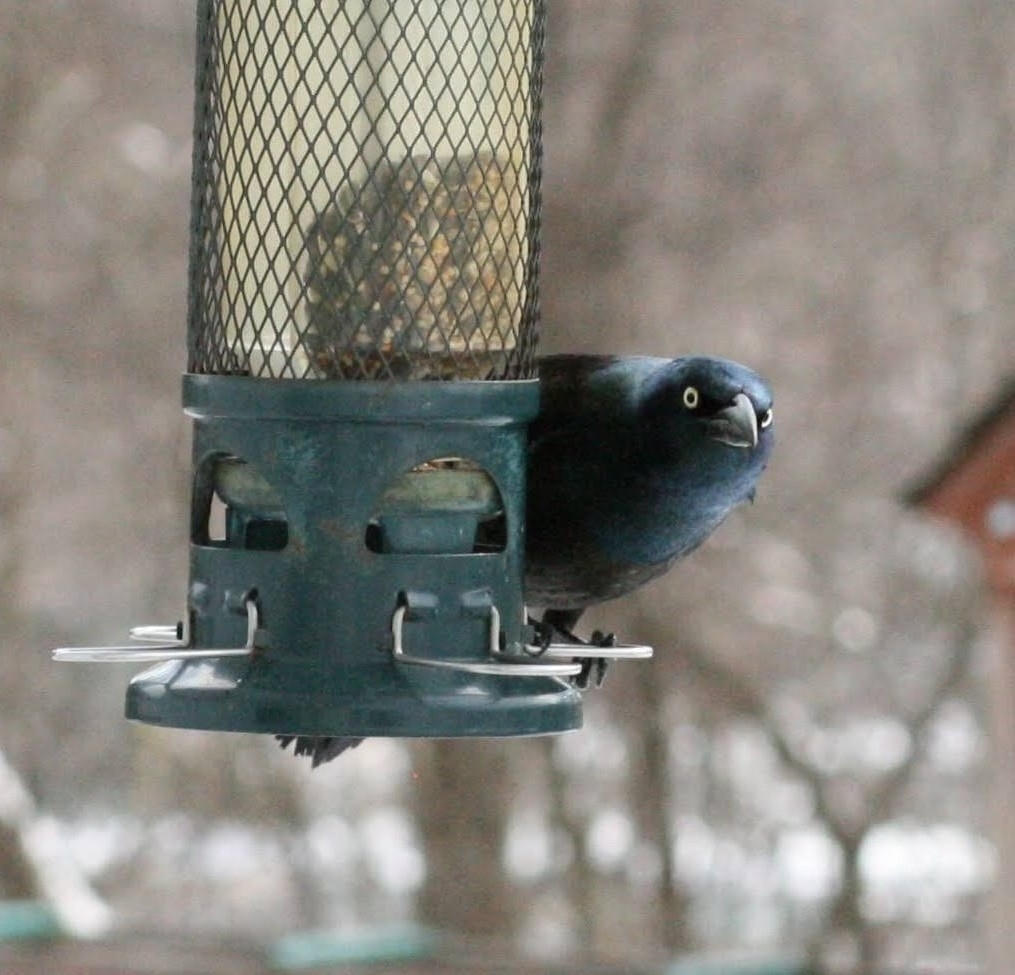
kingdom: Animalia
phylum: Chordata
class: Aves
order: Passeriformes
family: Icteridae
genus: Quiscalus
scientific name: Quiscalus quiscula
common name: Common grackle
